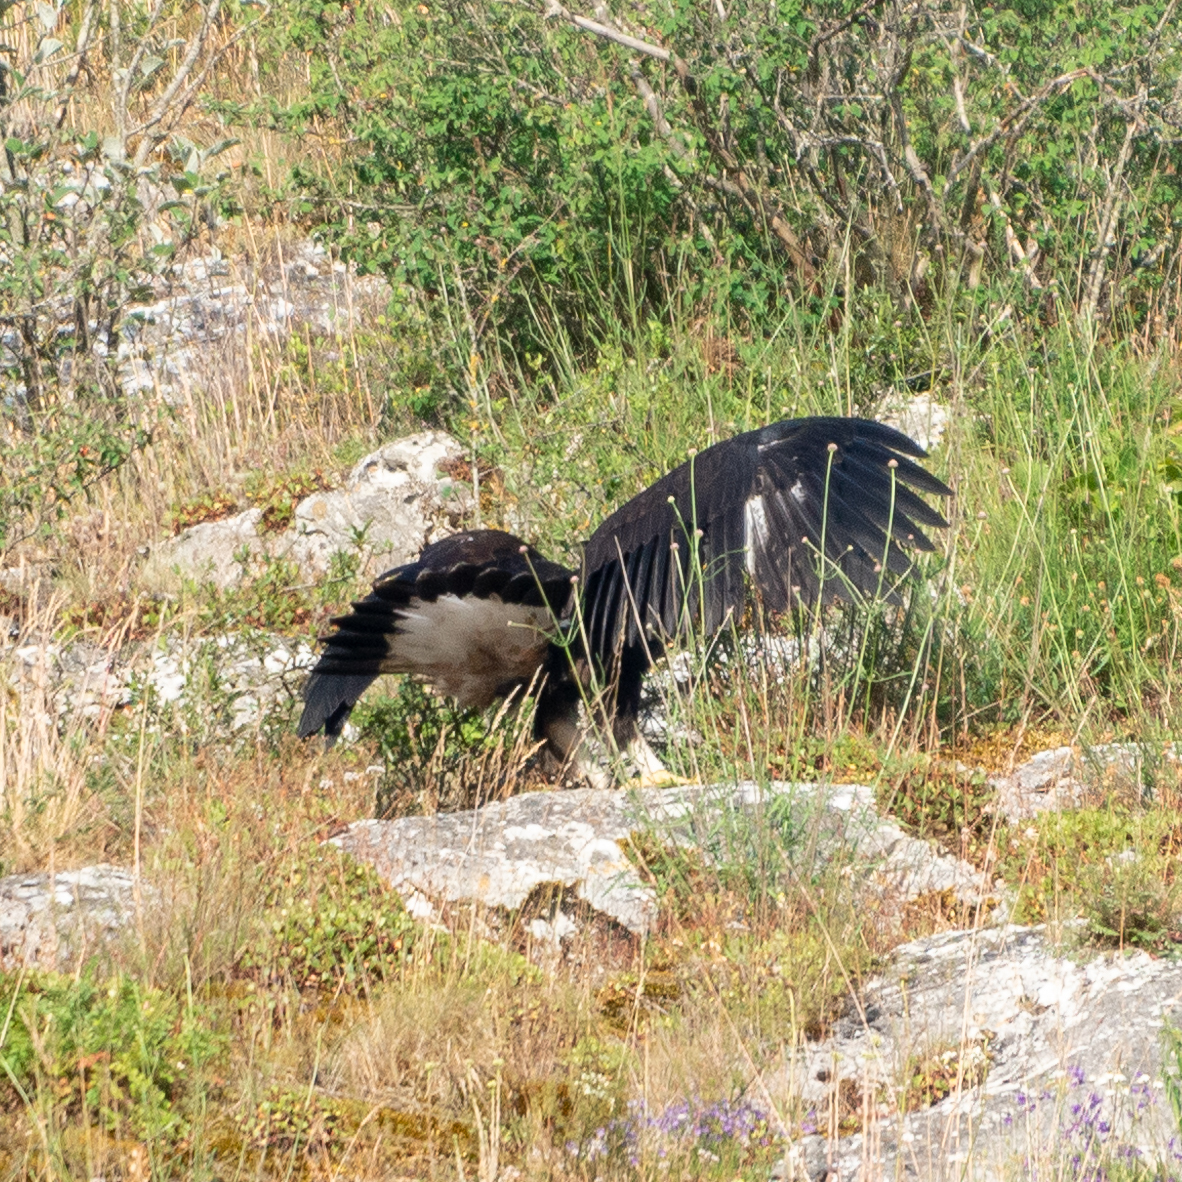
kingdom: Animalia
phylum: Chordata
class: Aves
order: Accipitriformes
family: Accipitridae
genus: Aquila
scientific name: Aquila chrysaetos
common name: Golden eagle
